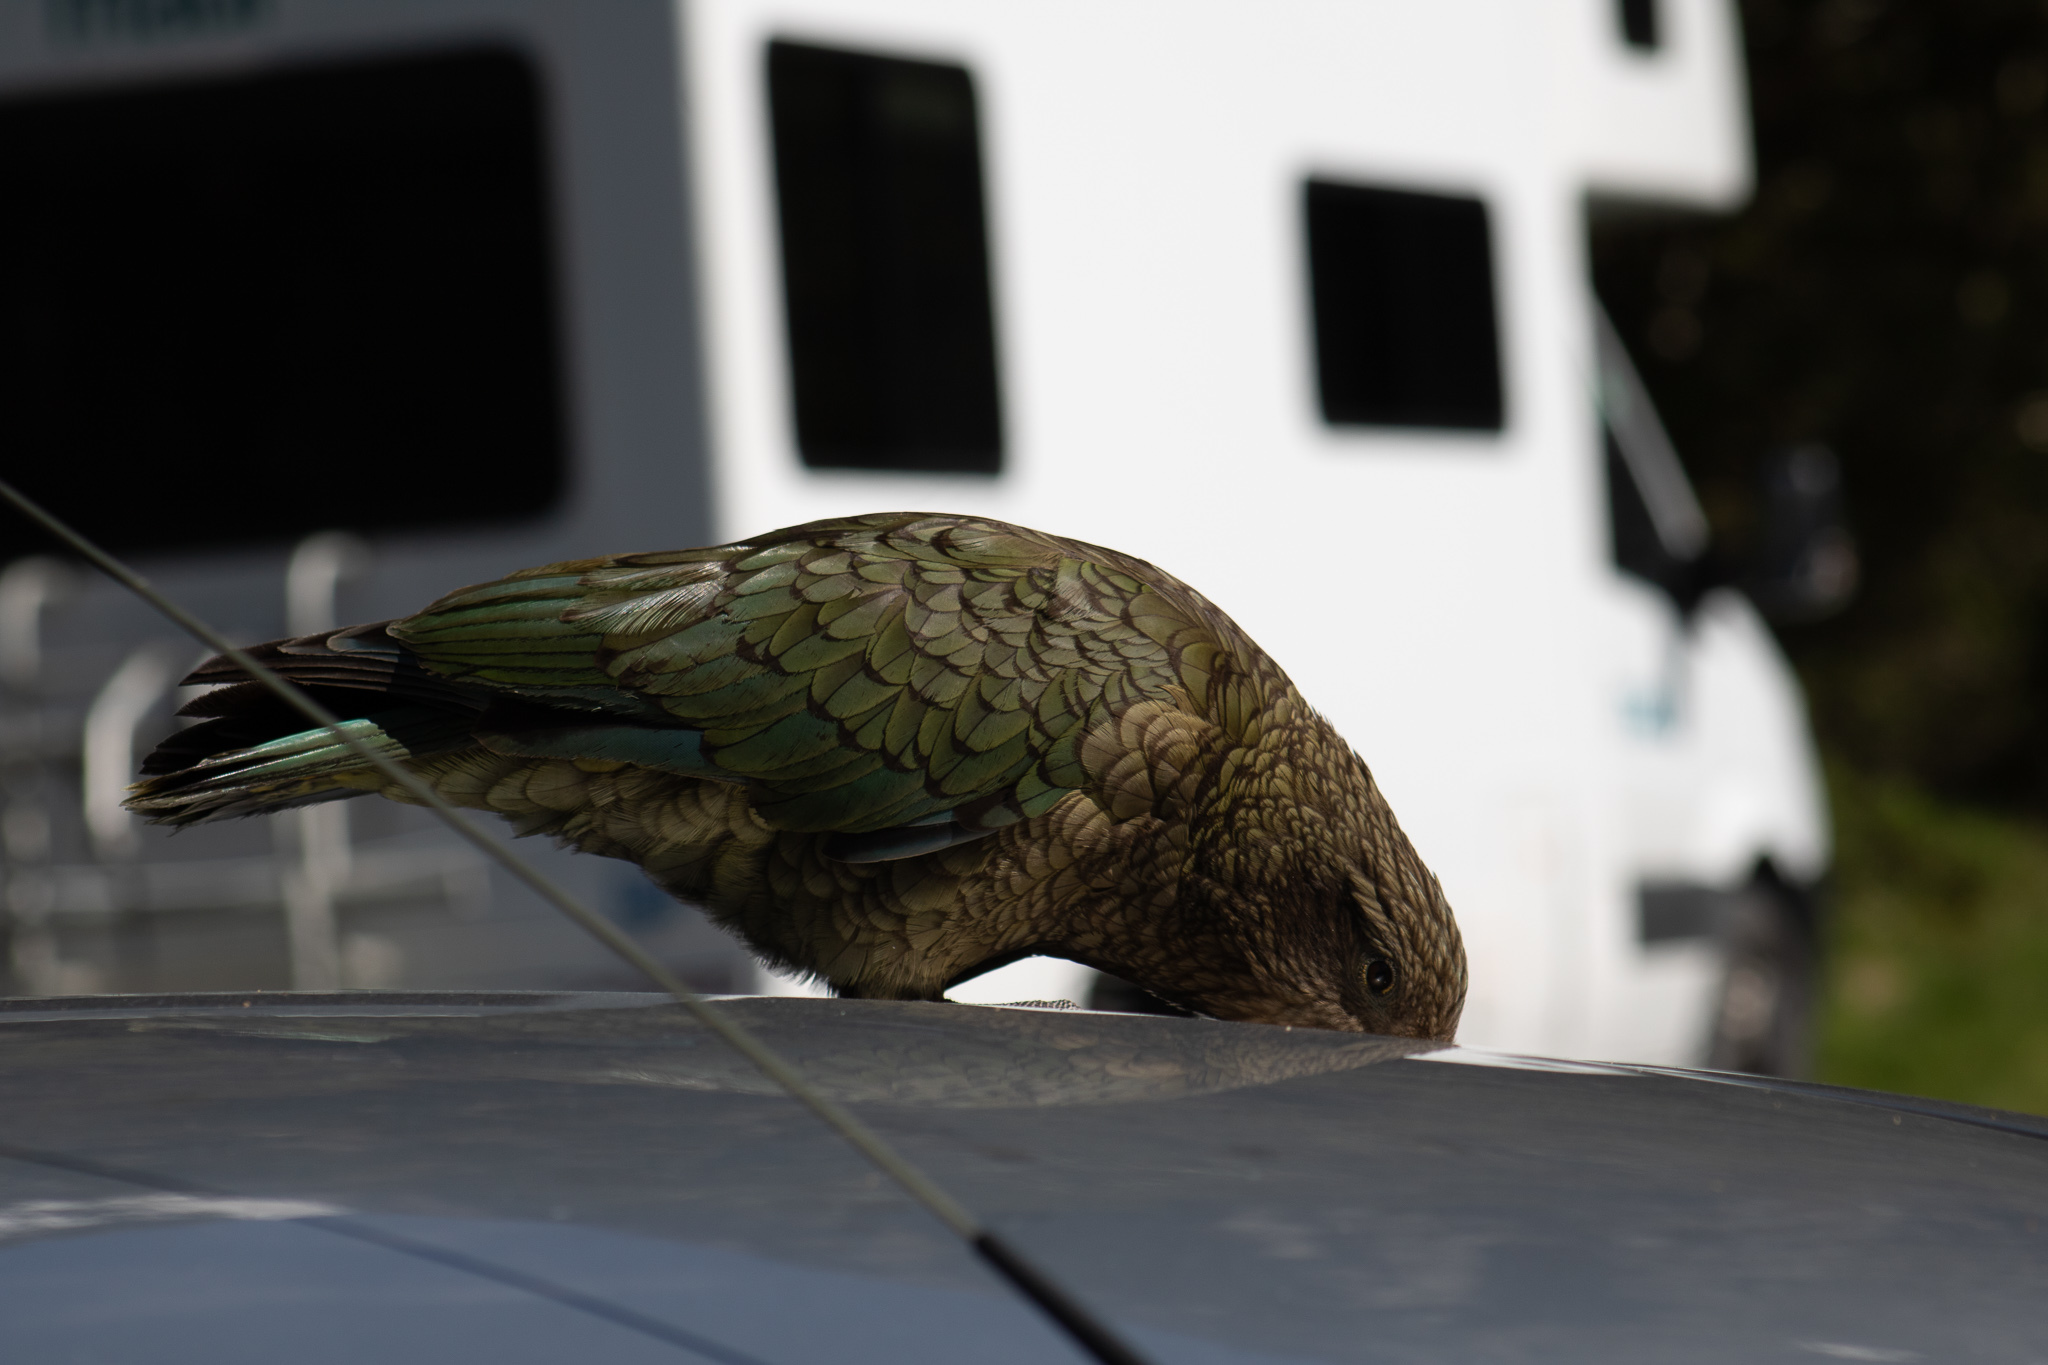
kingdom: Animalia
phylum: Chordata
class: Aves
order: Psittaciformes
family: Psittacidae
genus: Nestor
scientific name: Nestor notabilis
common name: Kea
